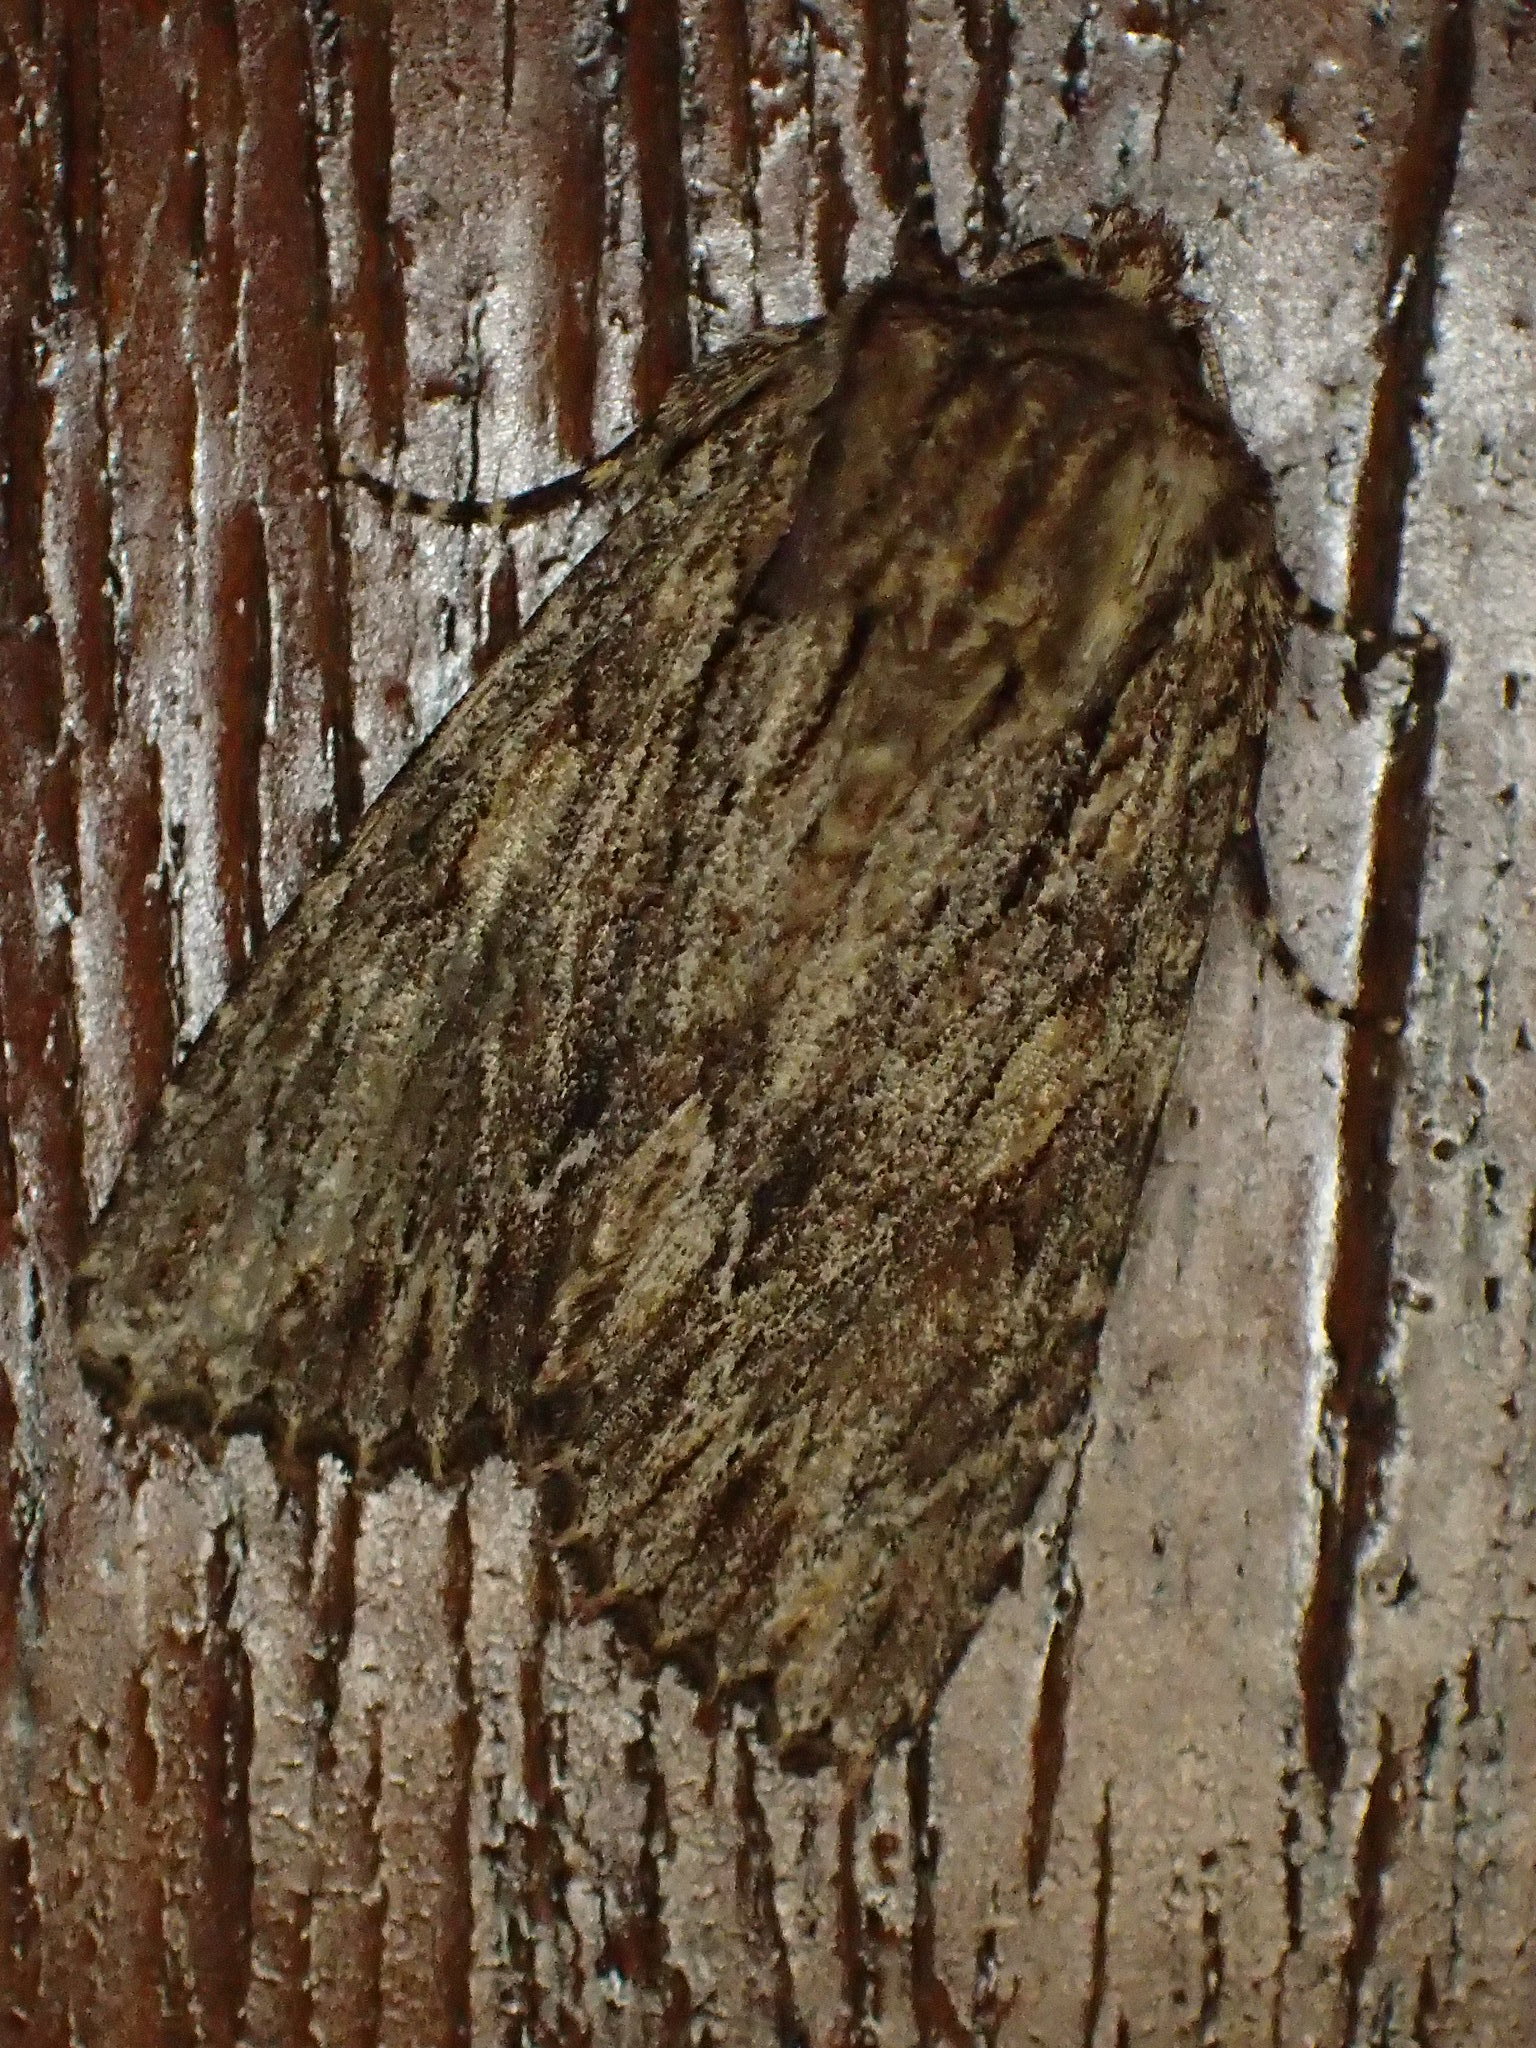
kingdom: Animalia
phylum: Arthropoda
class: Insecta
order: Lepidoptera
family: Noctuidae
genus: Achatia
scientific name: Achatia confusa
